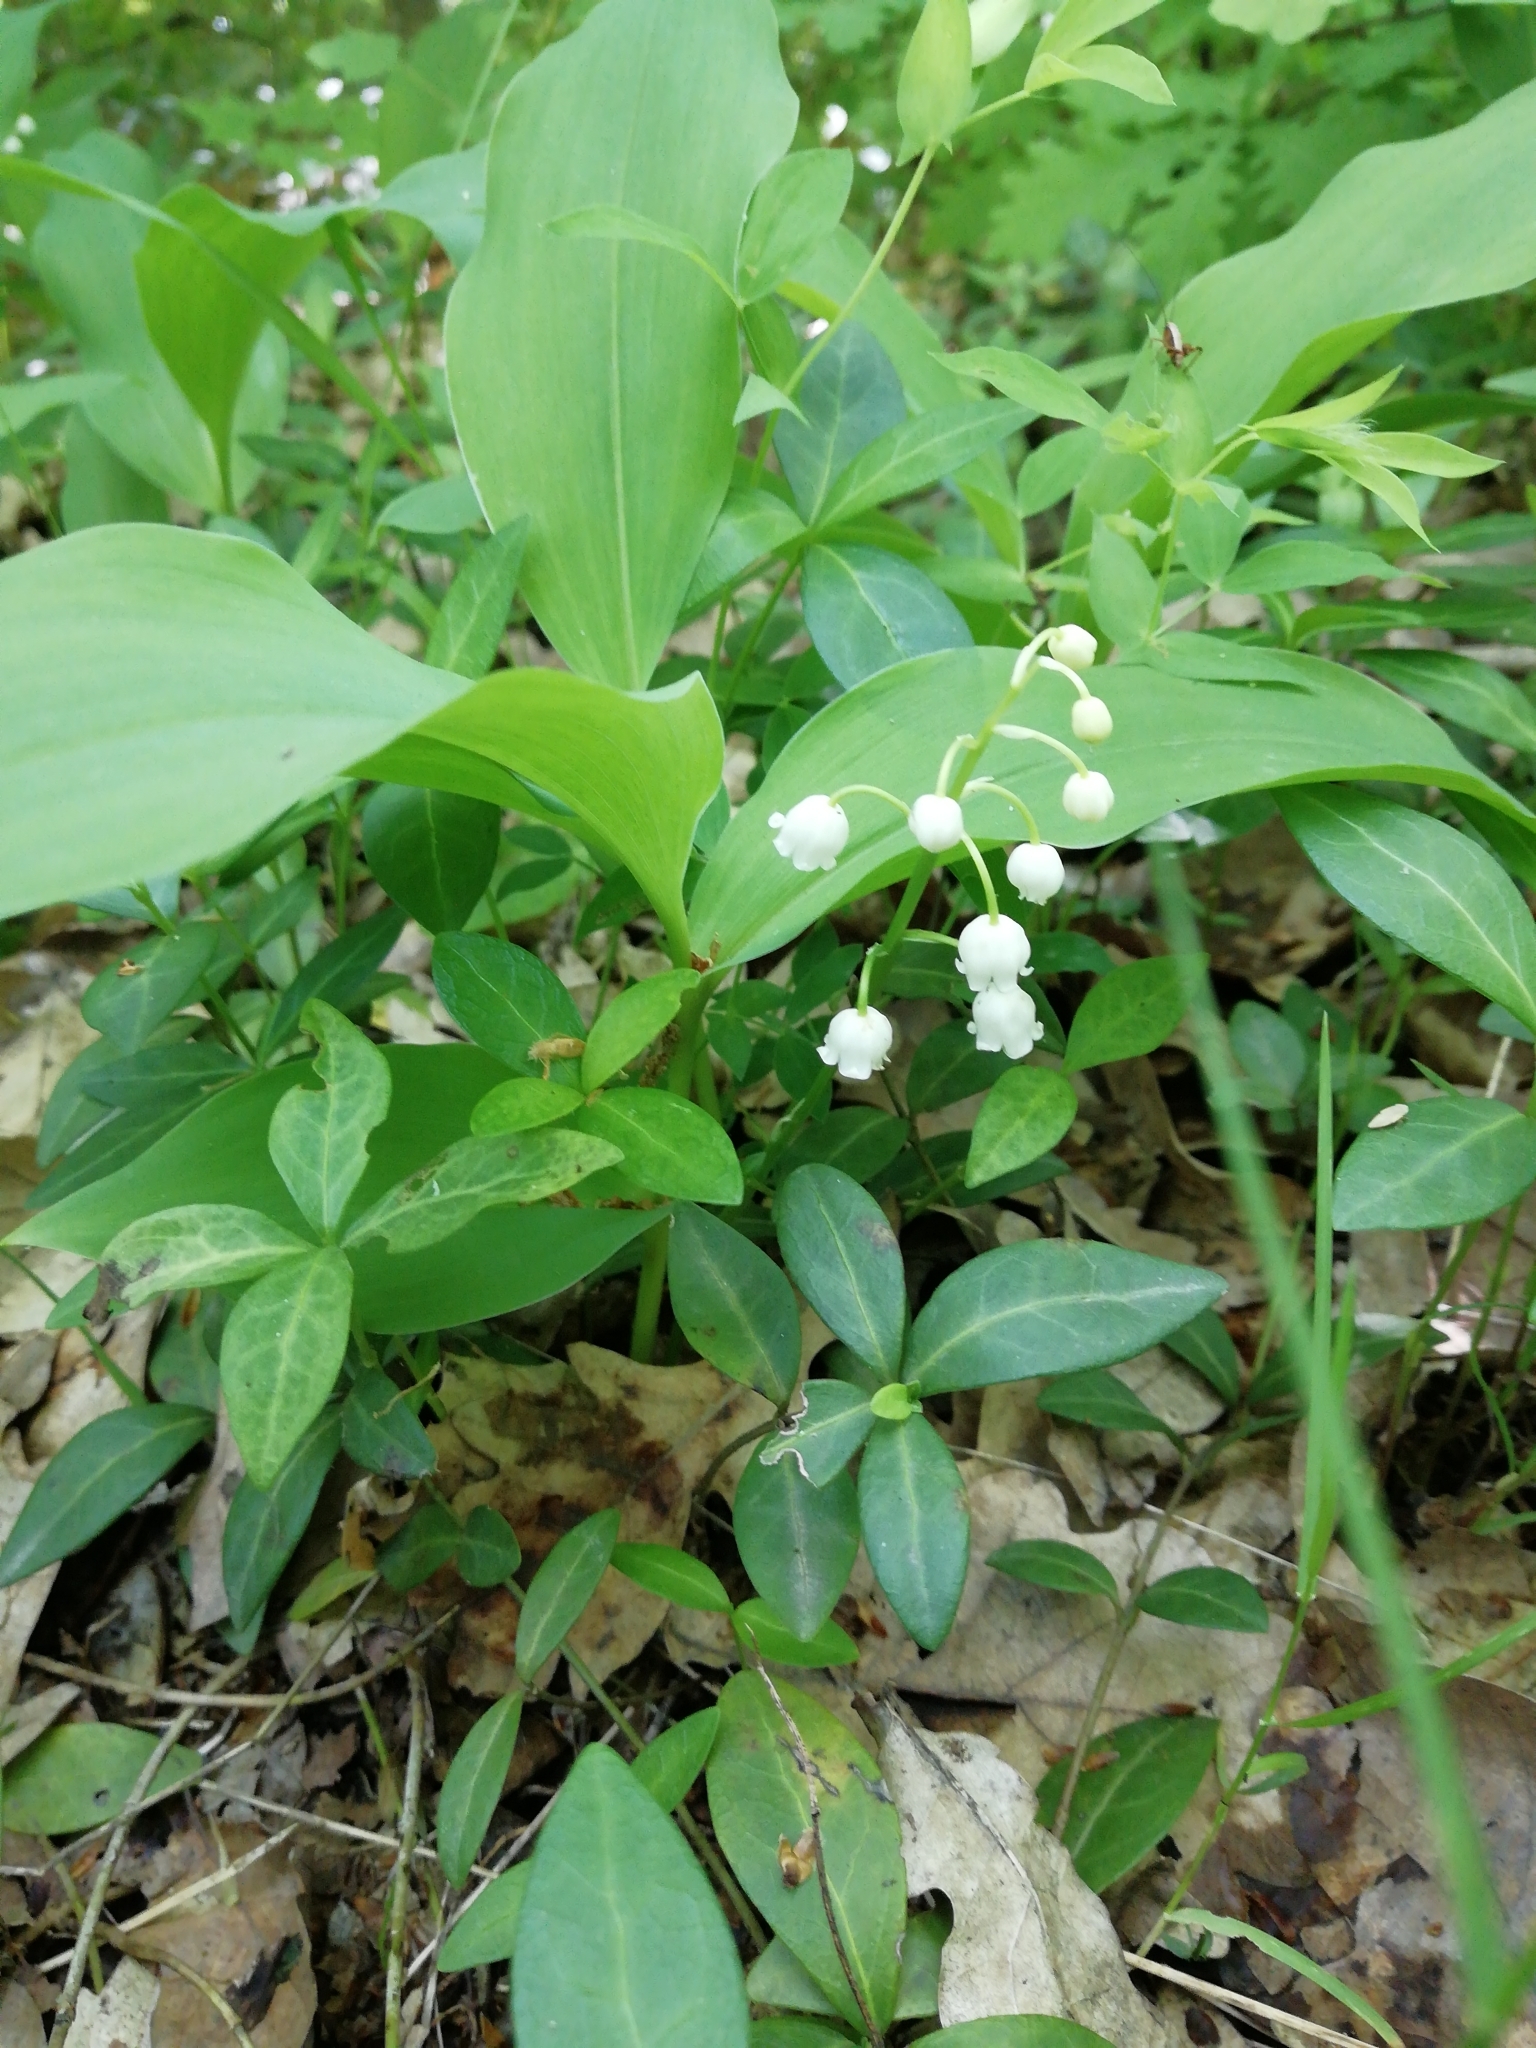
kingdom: Plantae
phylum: Tracheophyta
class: Liliopsida
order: Asparagales
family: Asparagaceae
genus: Convallaria
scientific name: Convallaria majalis
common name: Lily-of-the-valley
